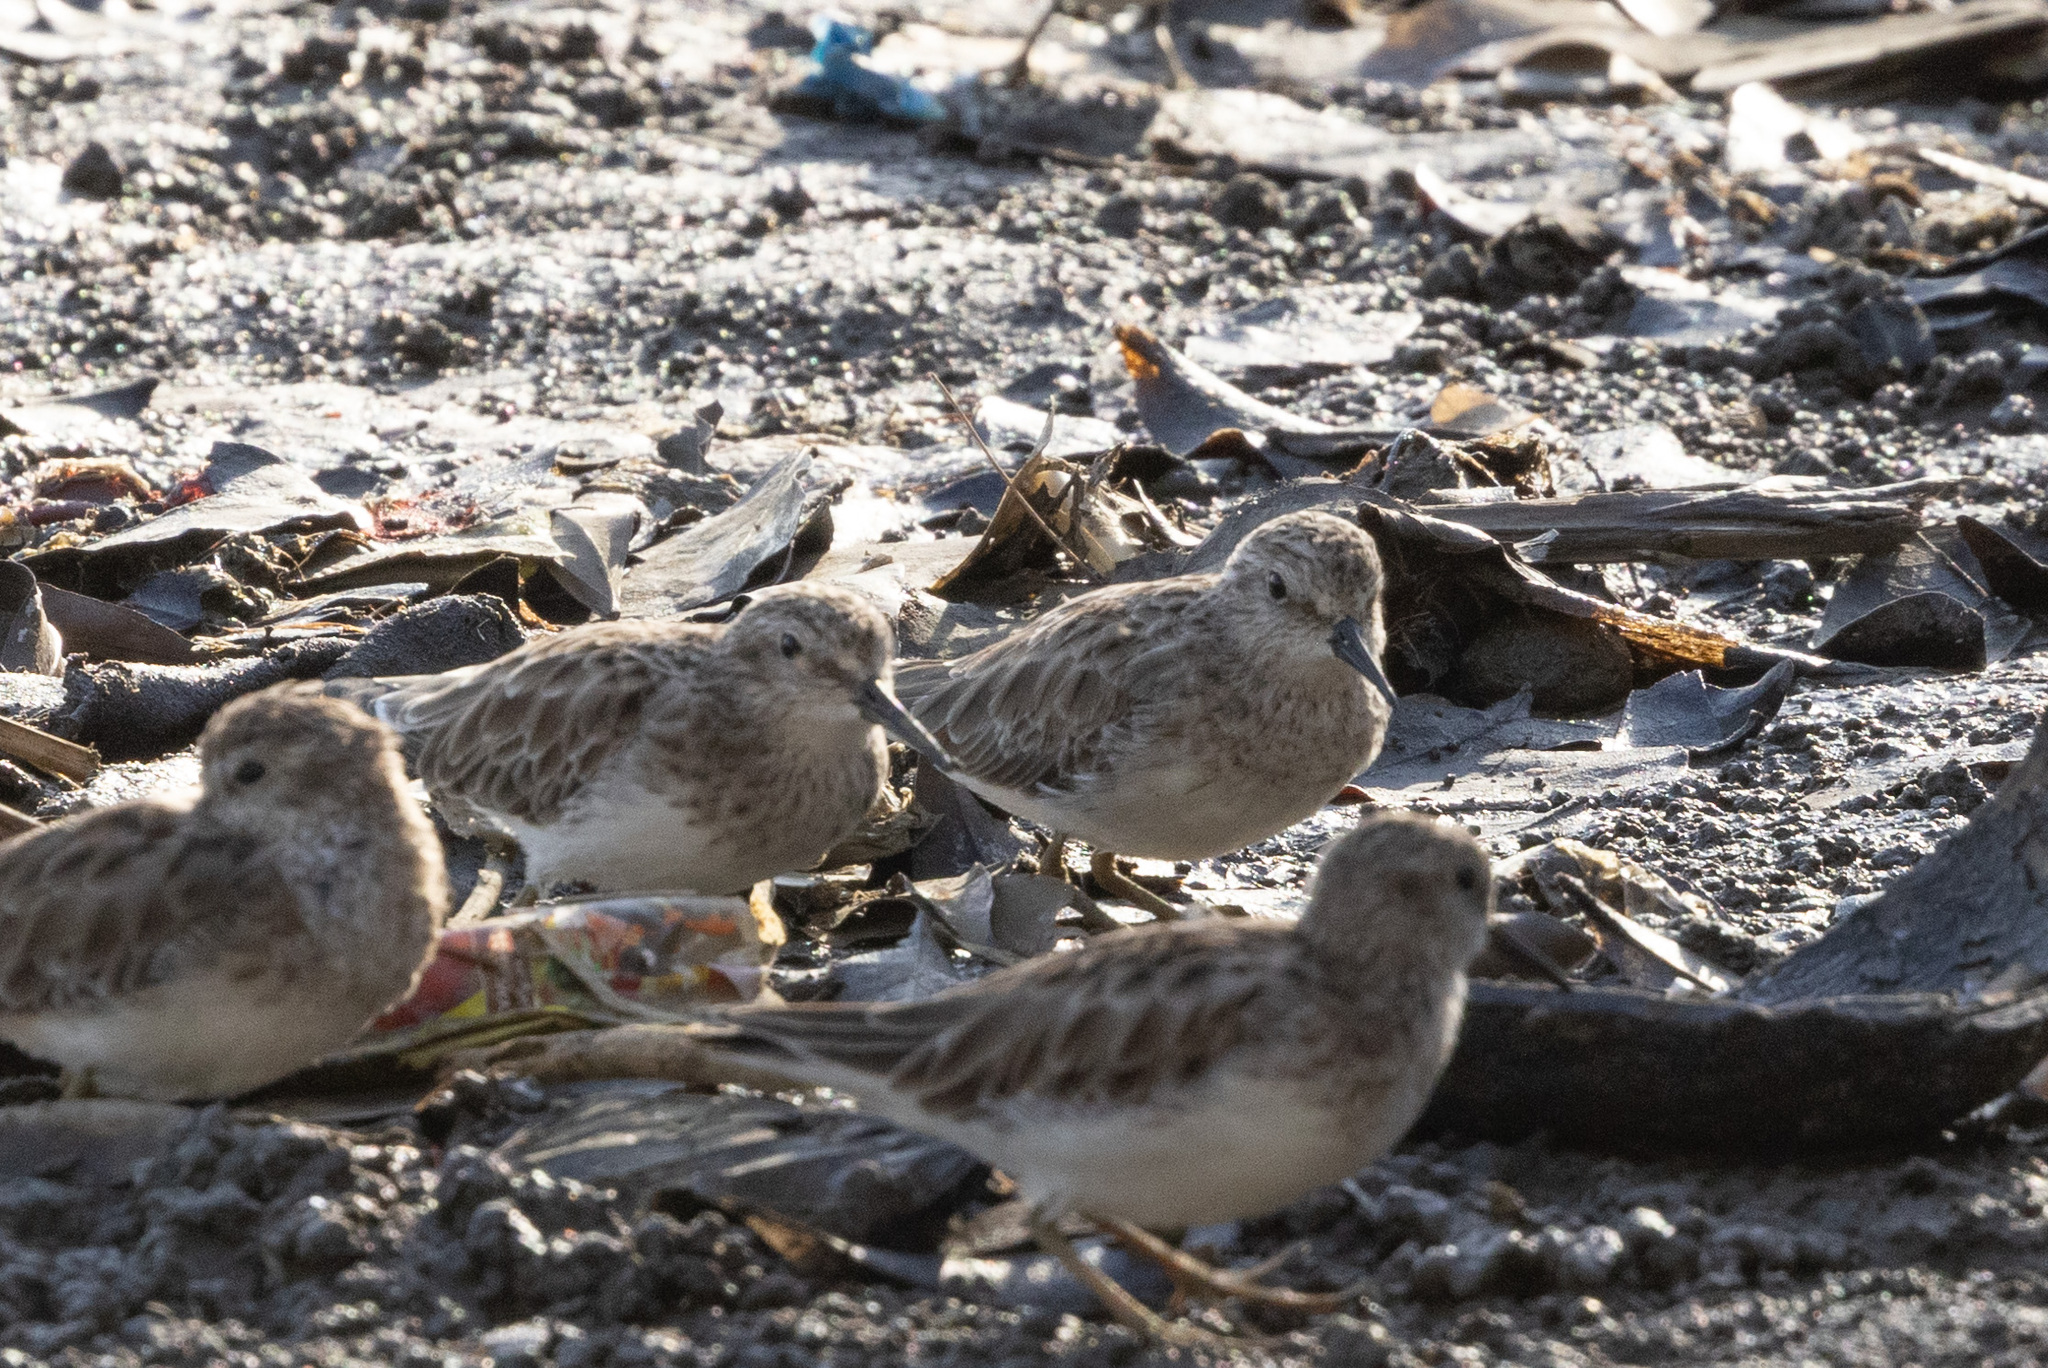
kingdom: Animalia
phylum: Chordata
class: Aves
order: Charadriiformes
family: Scolopacidae
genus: Calidris
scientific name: Calidris minutilla
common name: Least sandpiper
